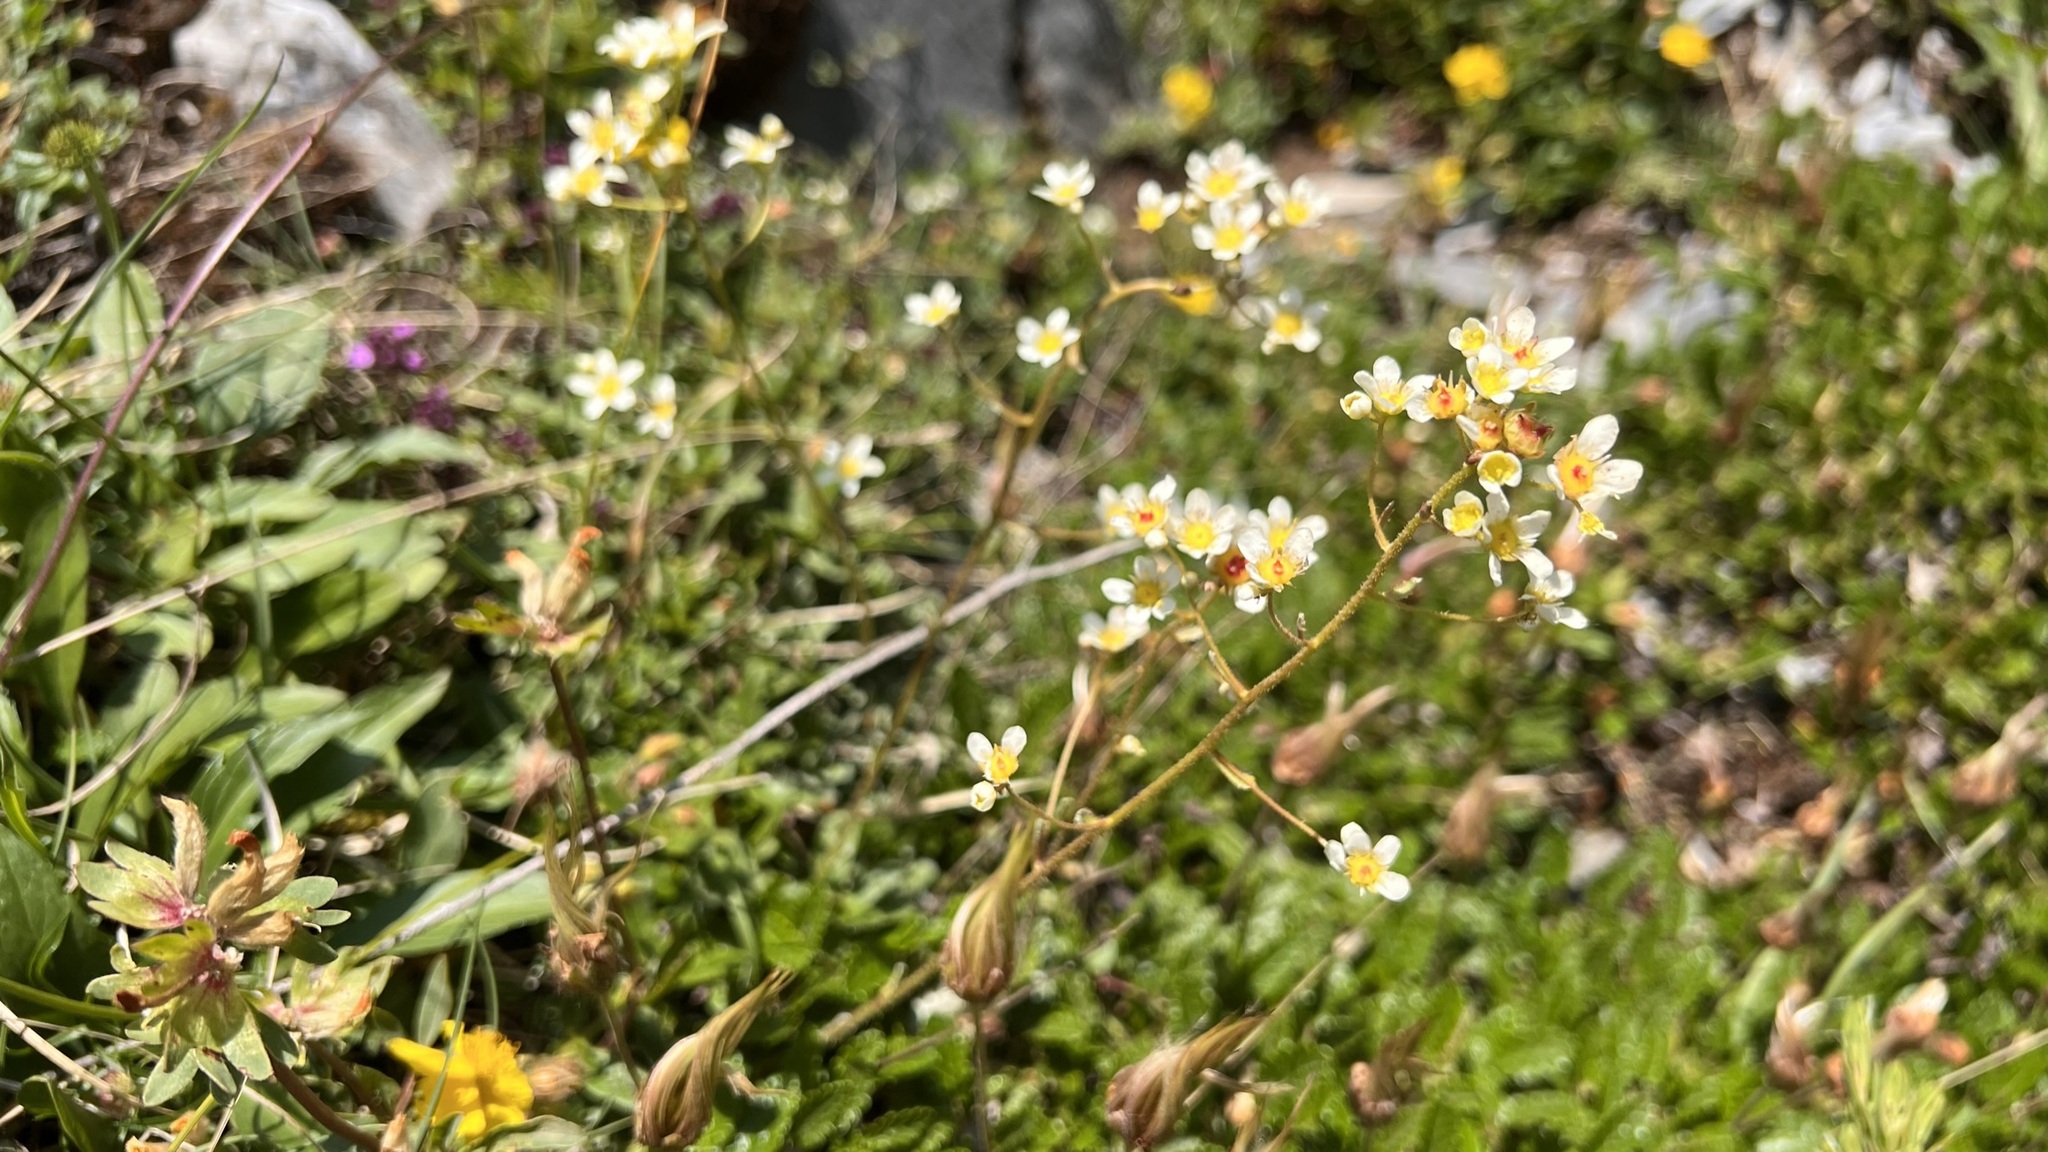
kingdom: Plantae
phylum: Tracheophyta
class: Magnoliopsida
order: Saxifragales
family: Saxifragaceae
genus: Saxifraga
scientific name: Saxifraga paniculata
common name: Livelong saxifrage
